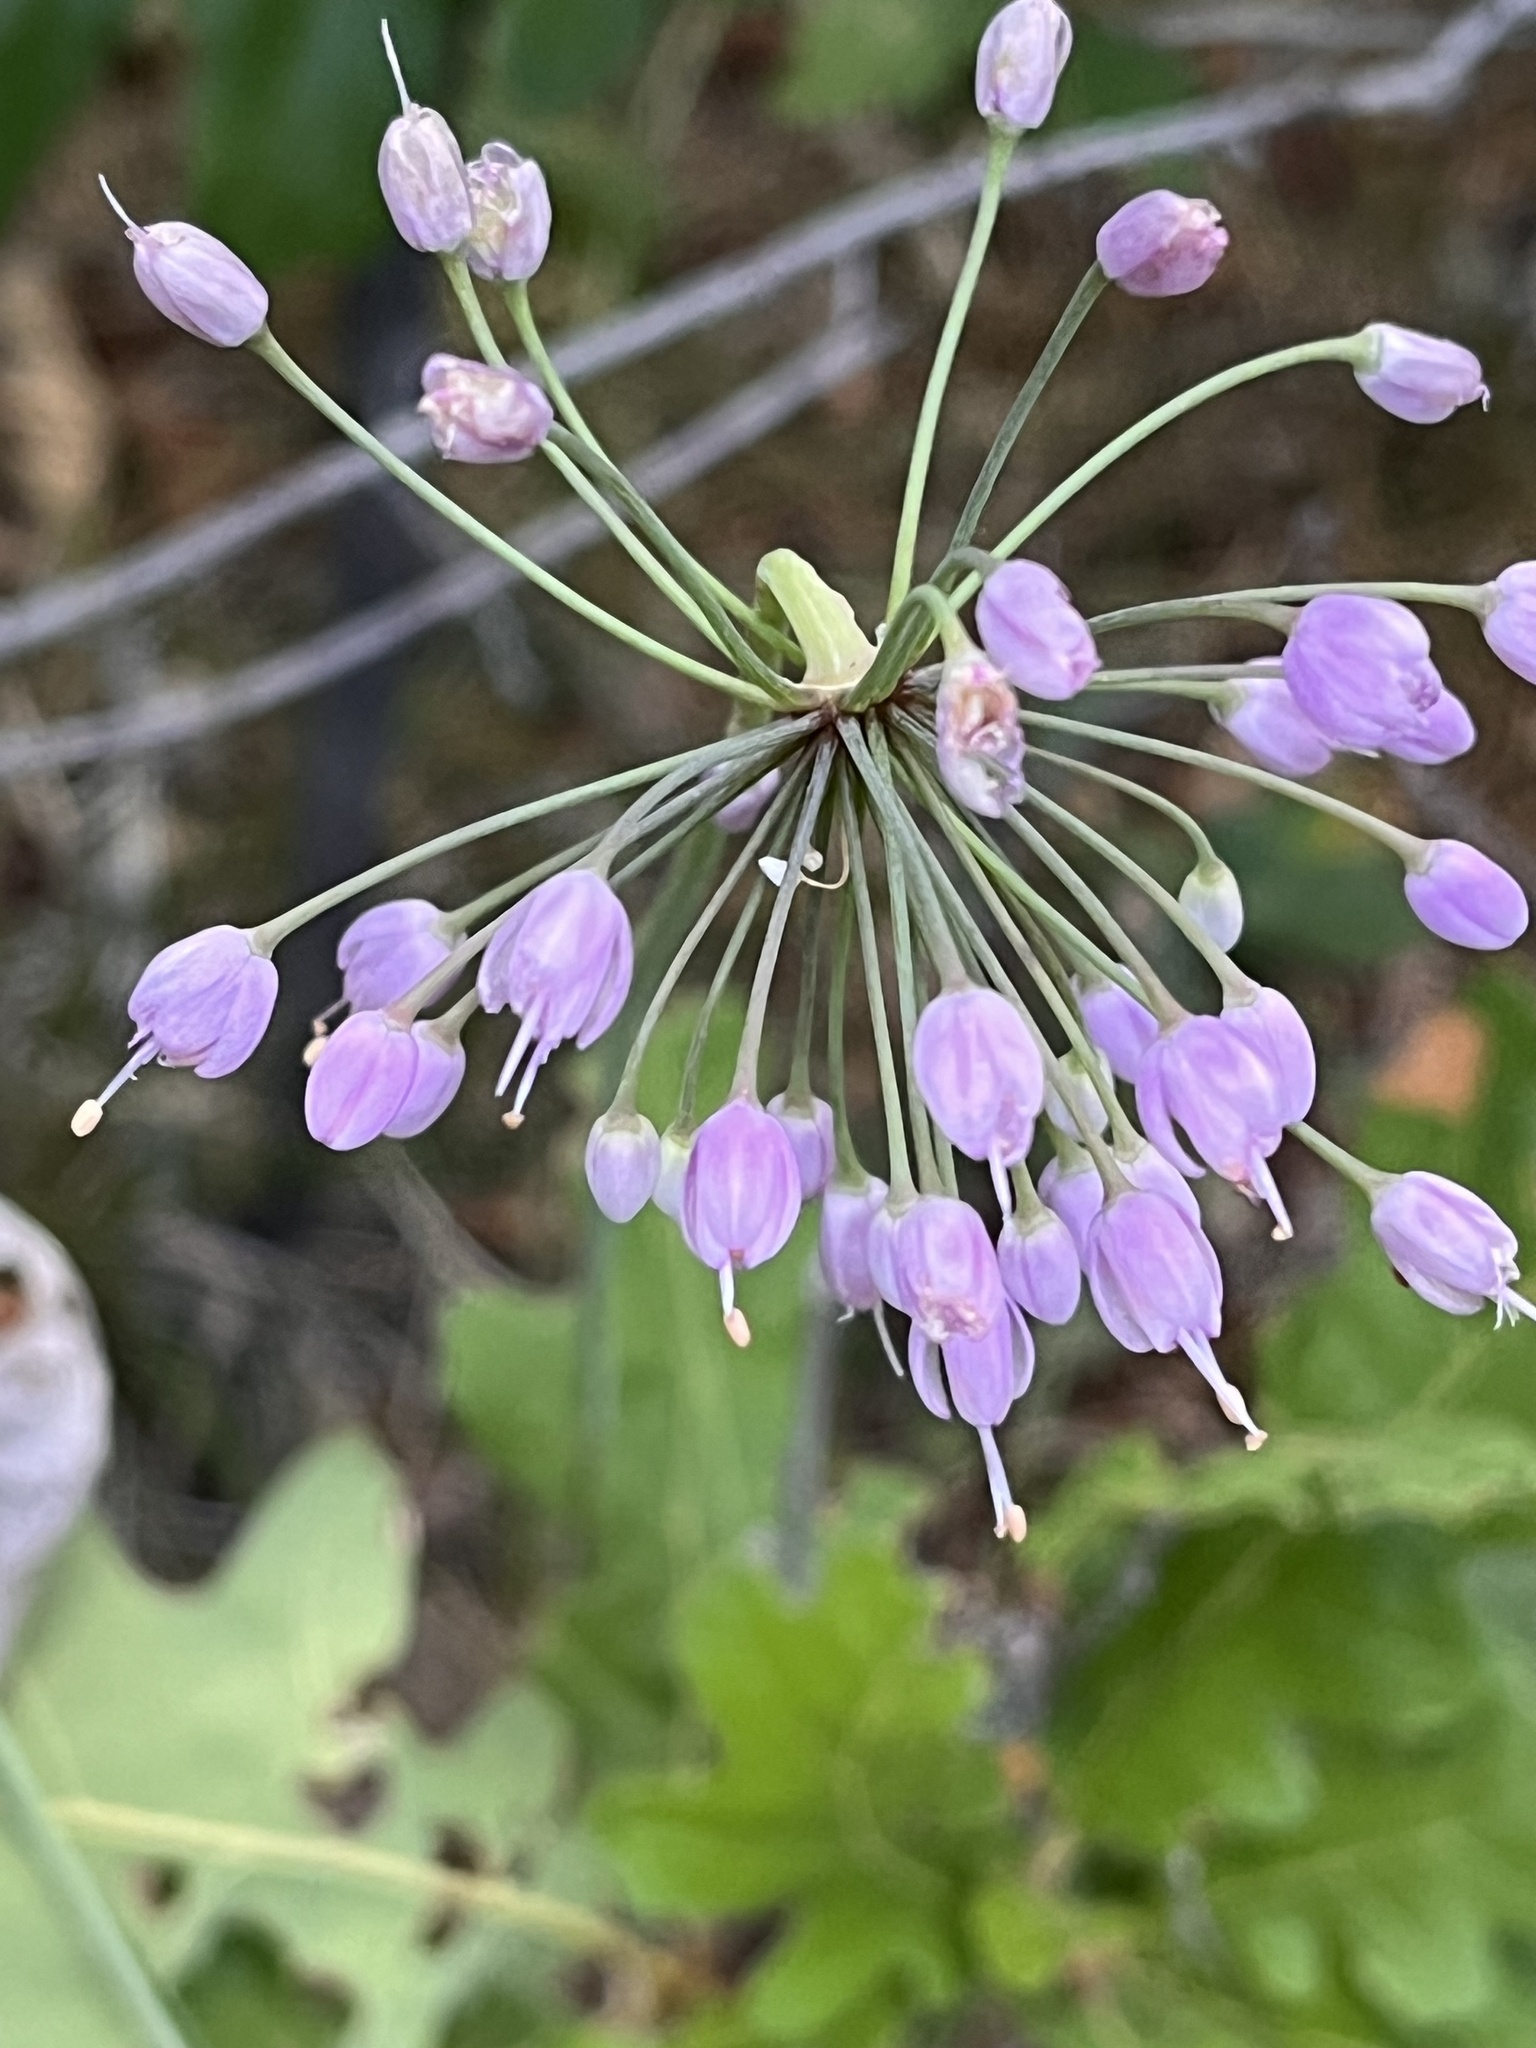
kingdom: Plantae
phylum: Tracheophyta
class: Liliopsida
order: Asparagales
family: Amaryllidaceae
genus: Allium
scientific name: Allium cernuum
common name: Nodding onion
